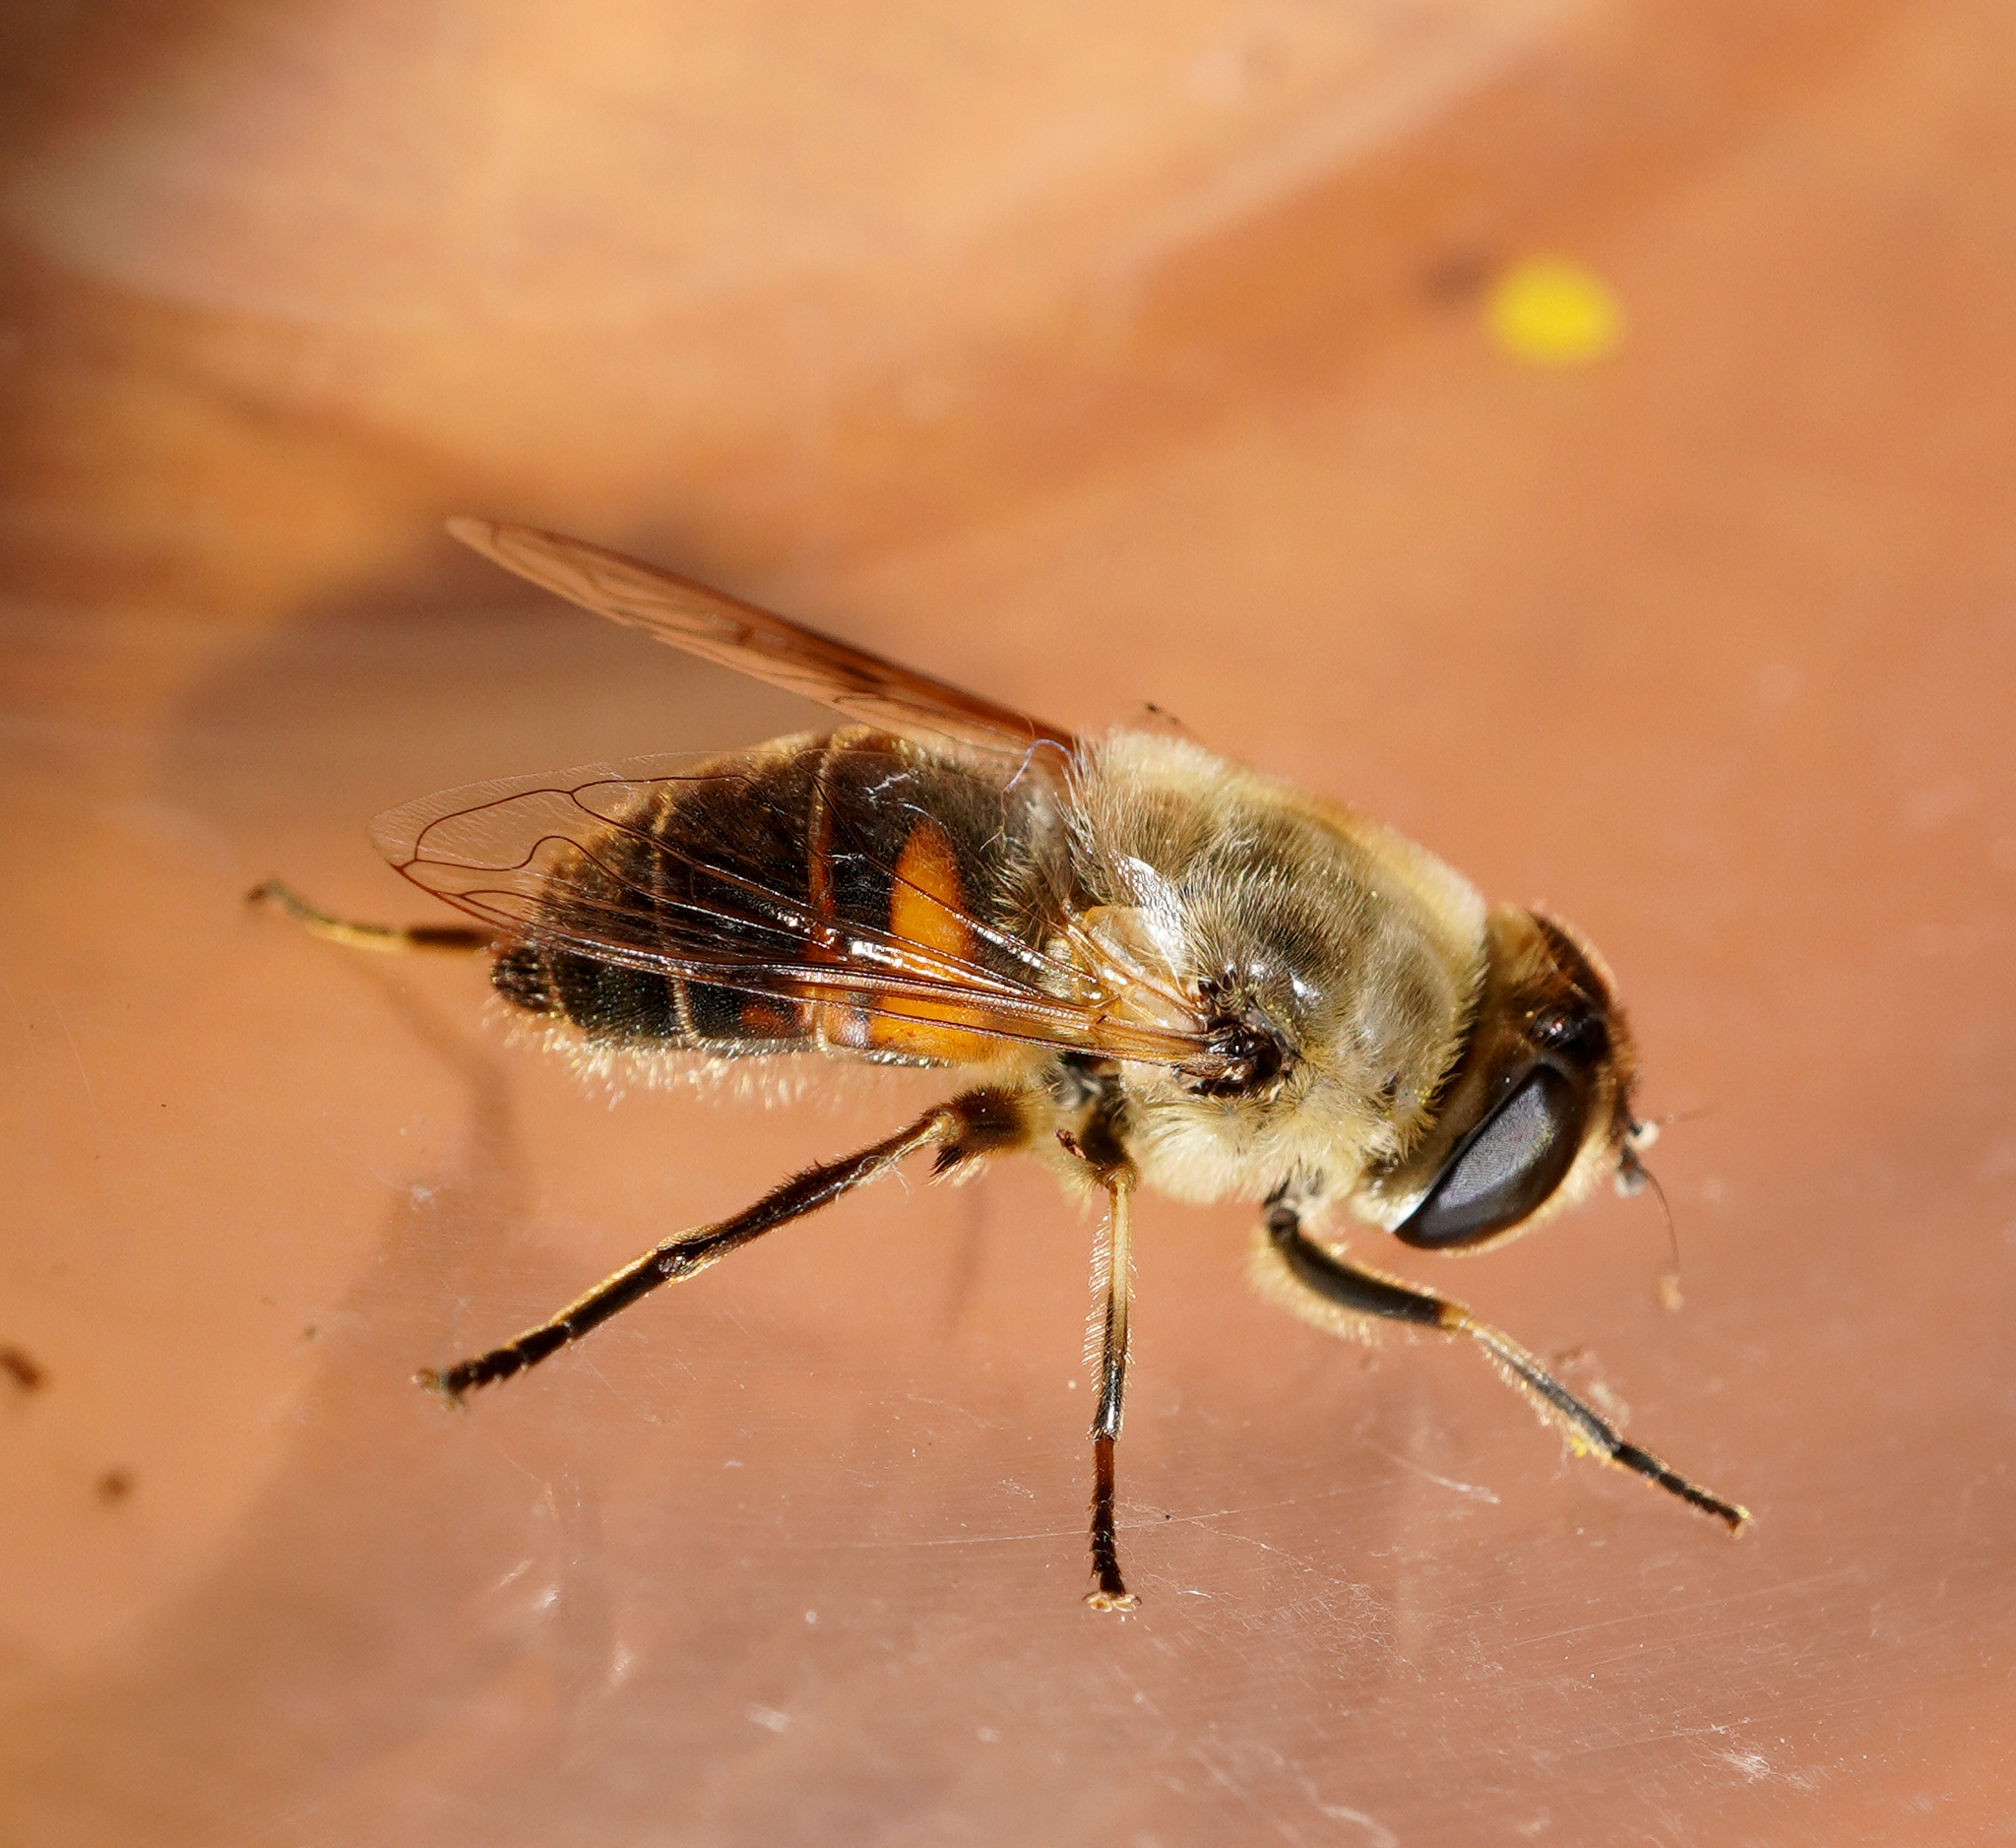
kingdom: Animalia
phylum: Arthropoda
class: Insecta
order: Diptera
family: Syrphidae
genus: Eristalis
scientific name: Eristalis tenax
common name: Drone fly
